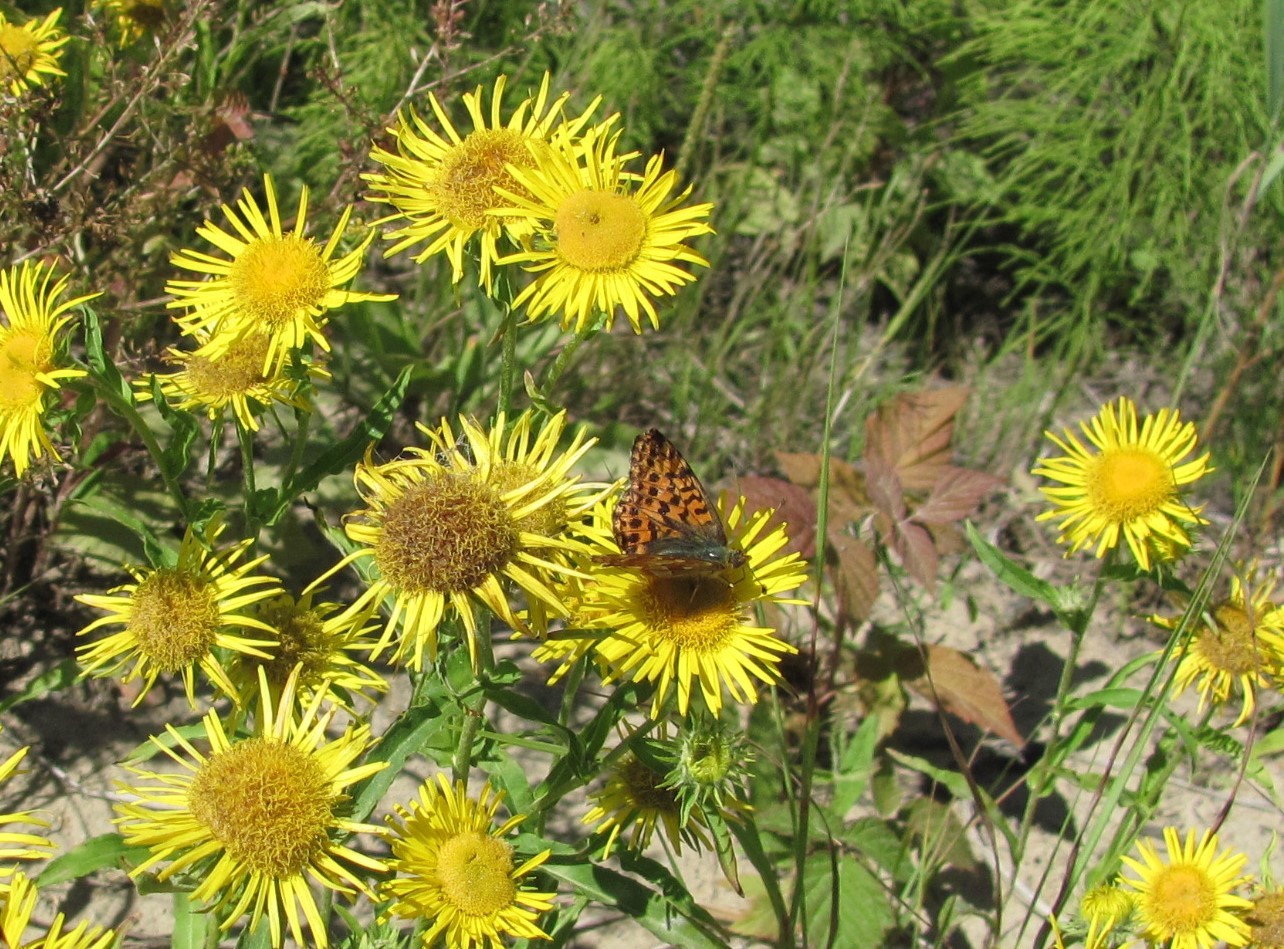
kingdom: Animalia
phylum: Arthropoda
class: Insecta
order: Lepidoptera
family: Nymphalidae
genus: Boloria
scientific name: Boloria aquilonaris
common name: Cranberry fritillary
